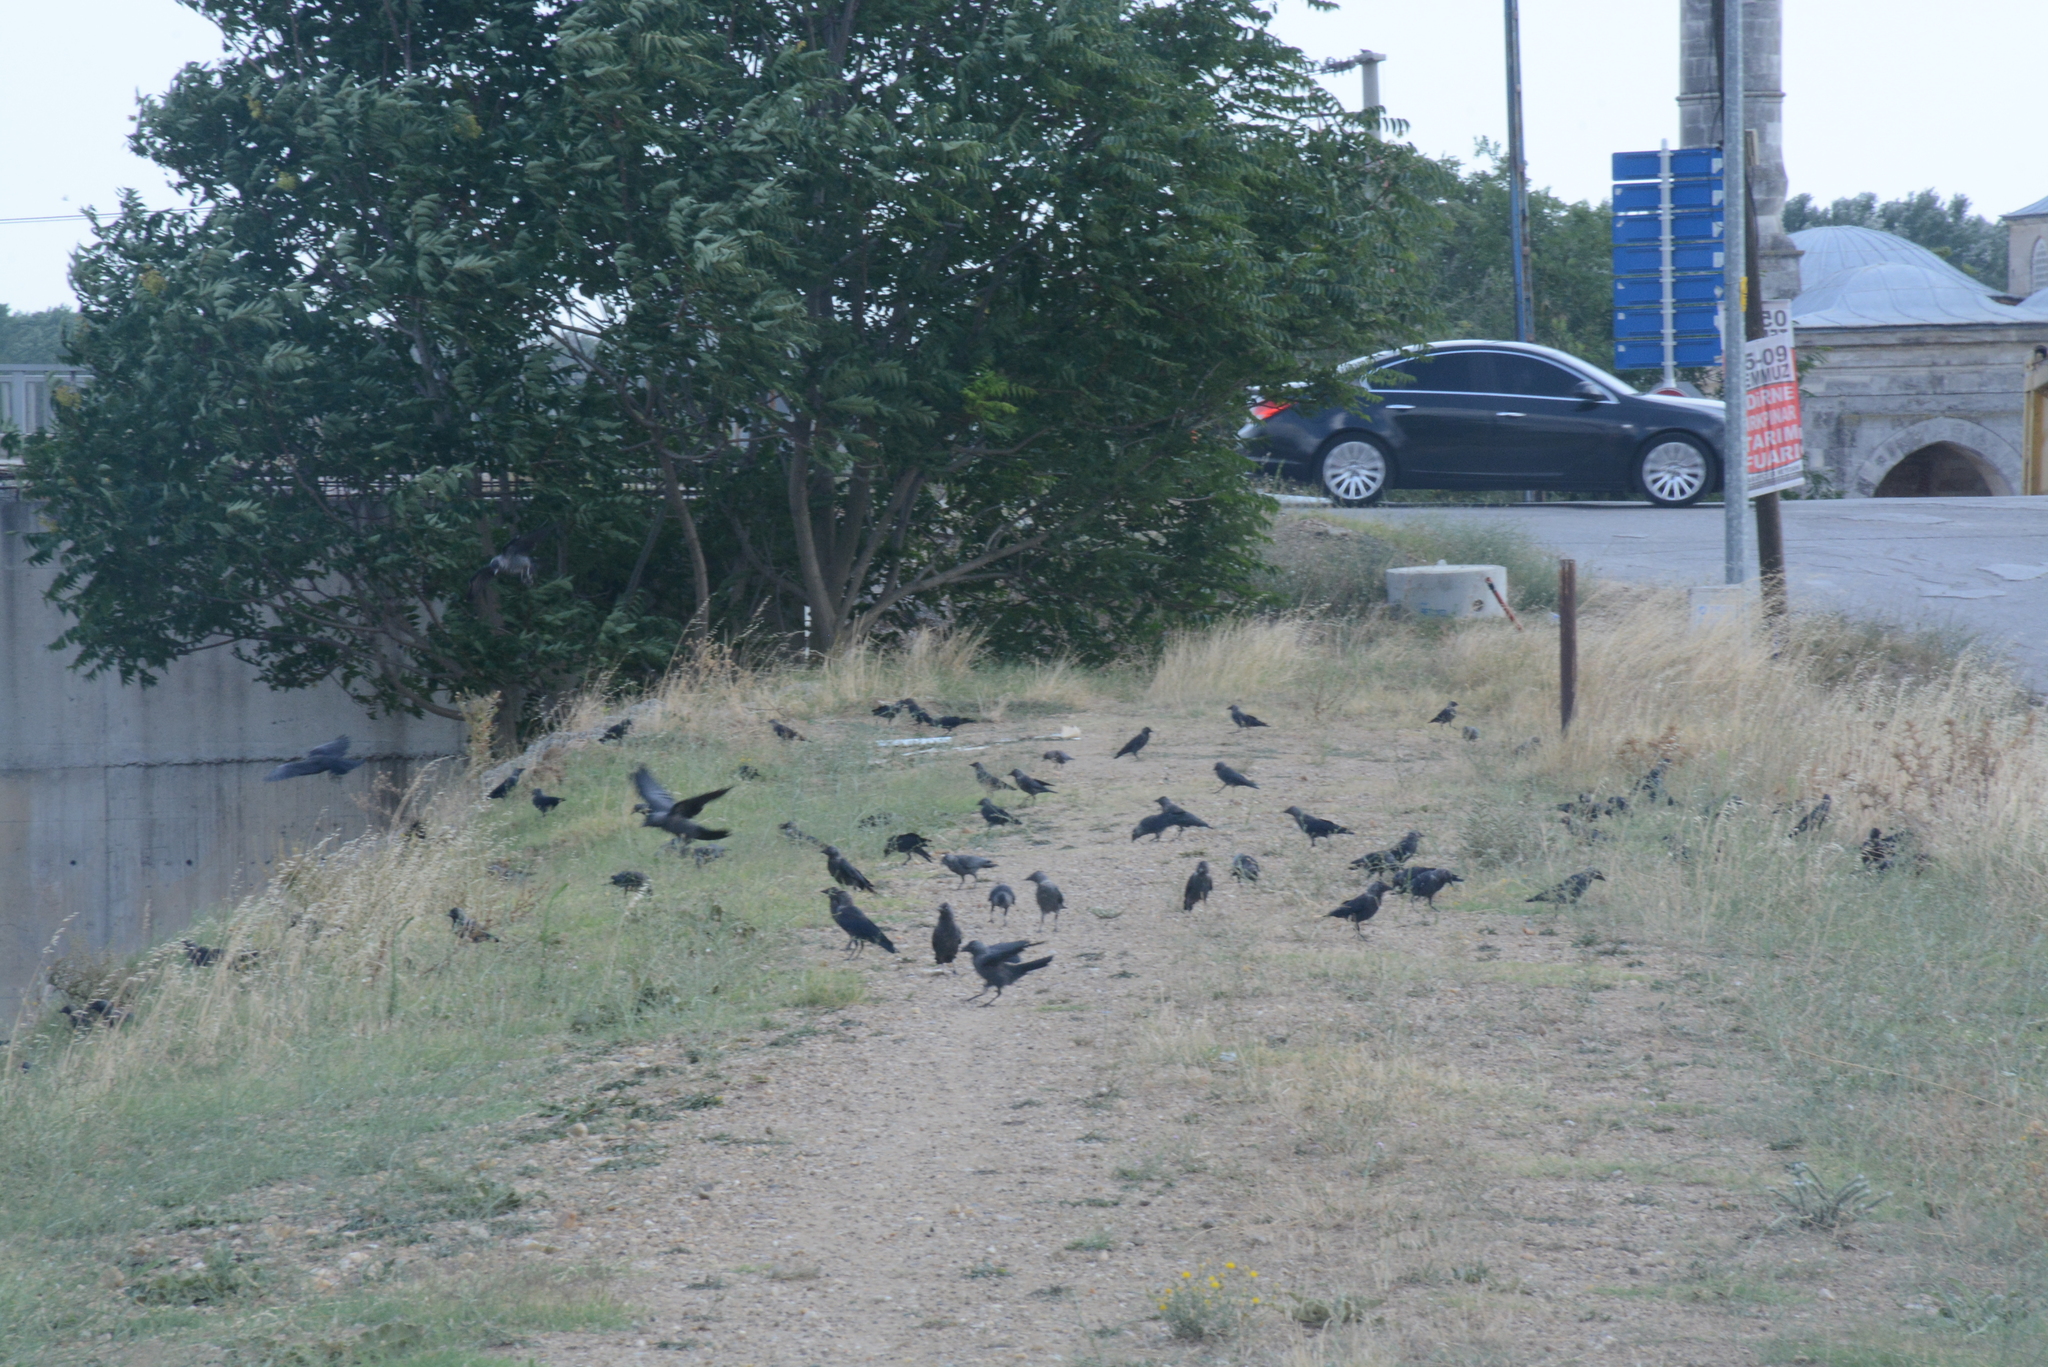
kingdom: Animalia
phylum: Chordata
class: Aves
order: Passeriformes
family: Corvidae
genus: Coloeus
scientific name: Coloeus monedula
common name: Western jackdaw
